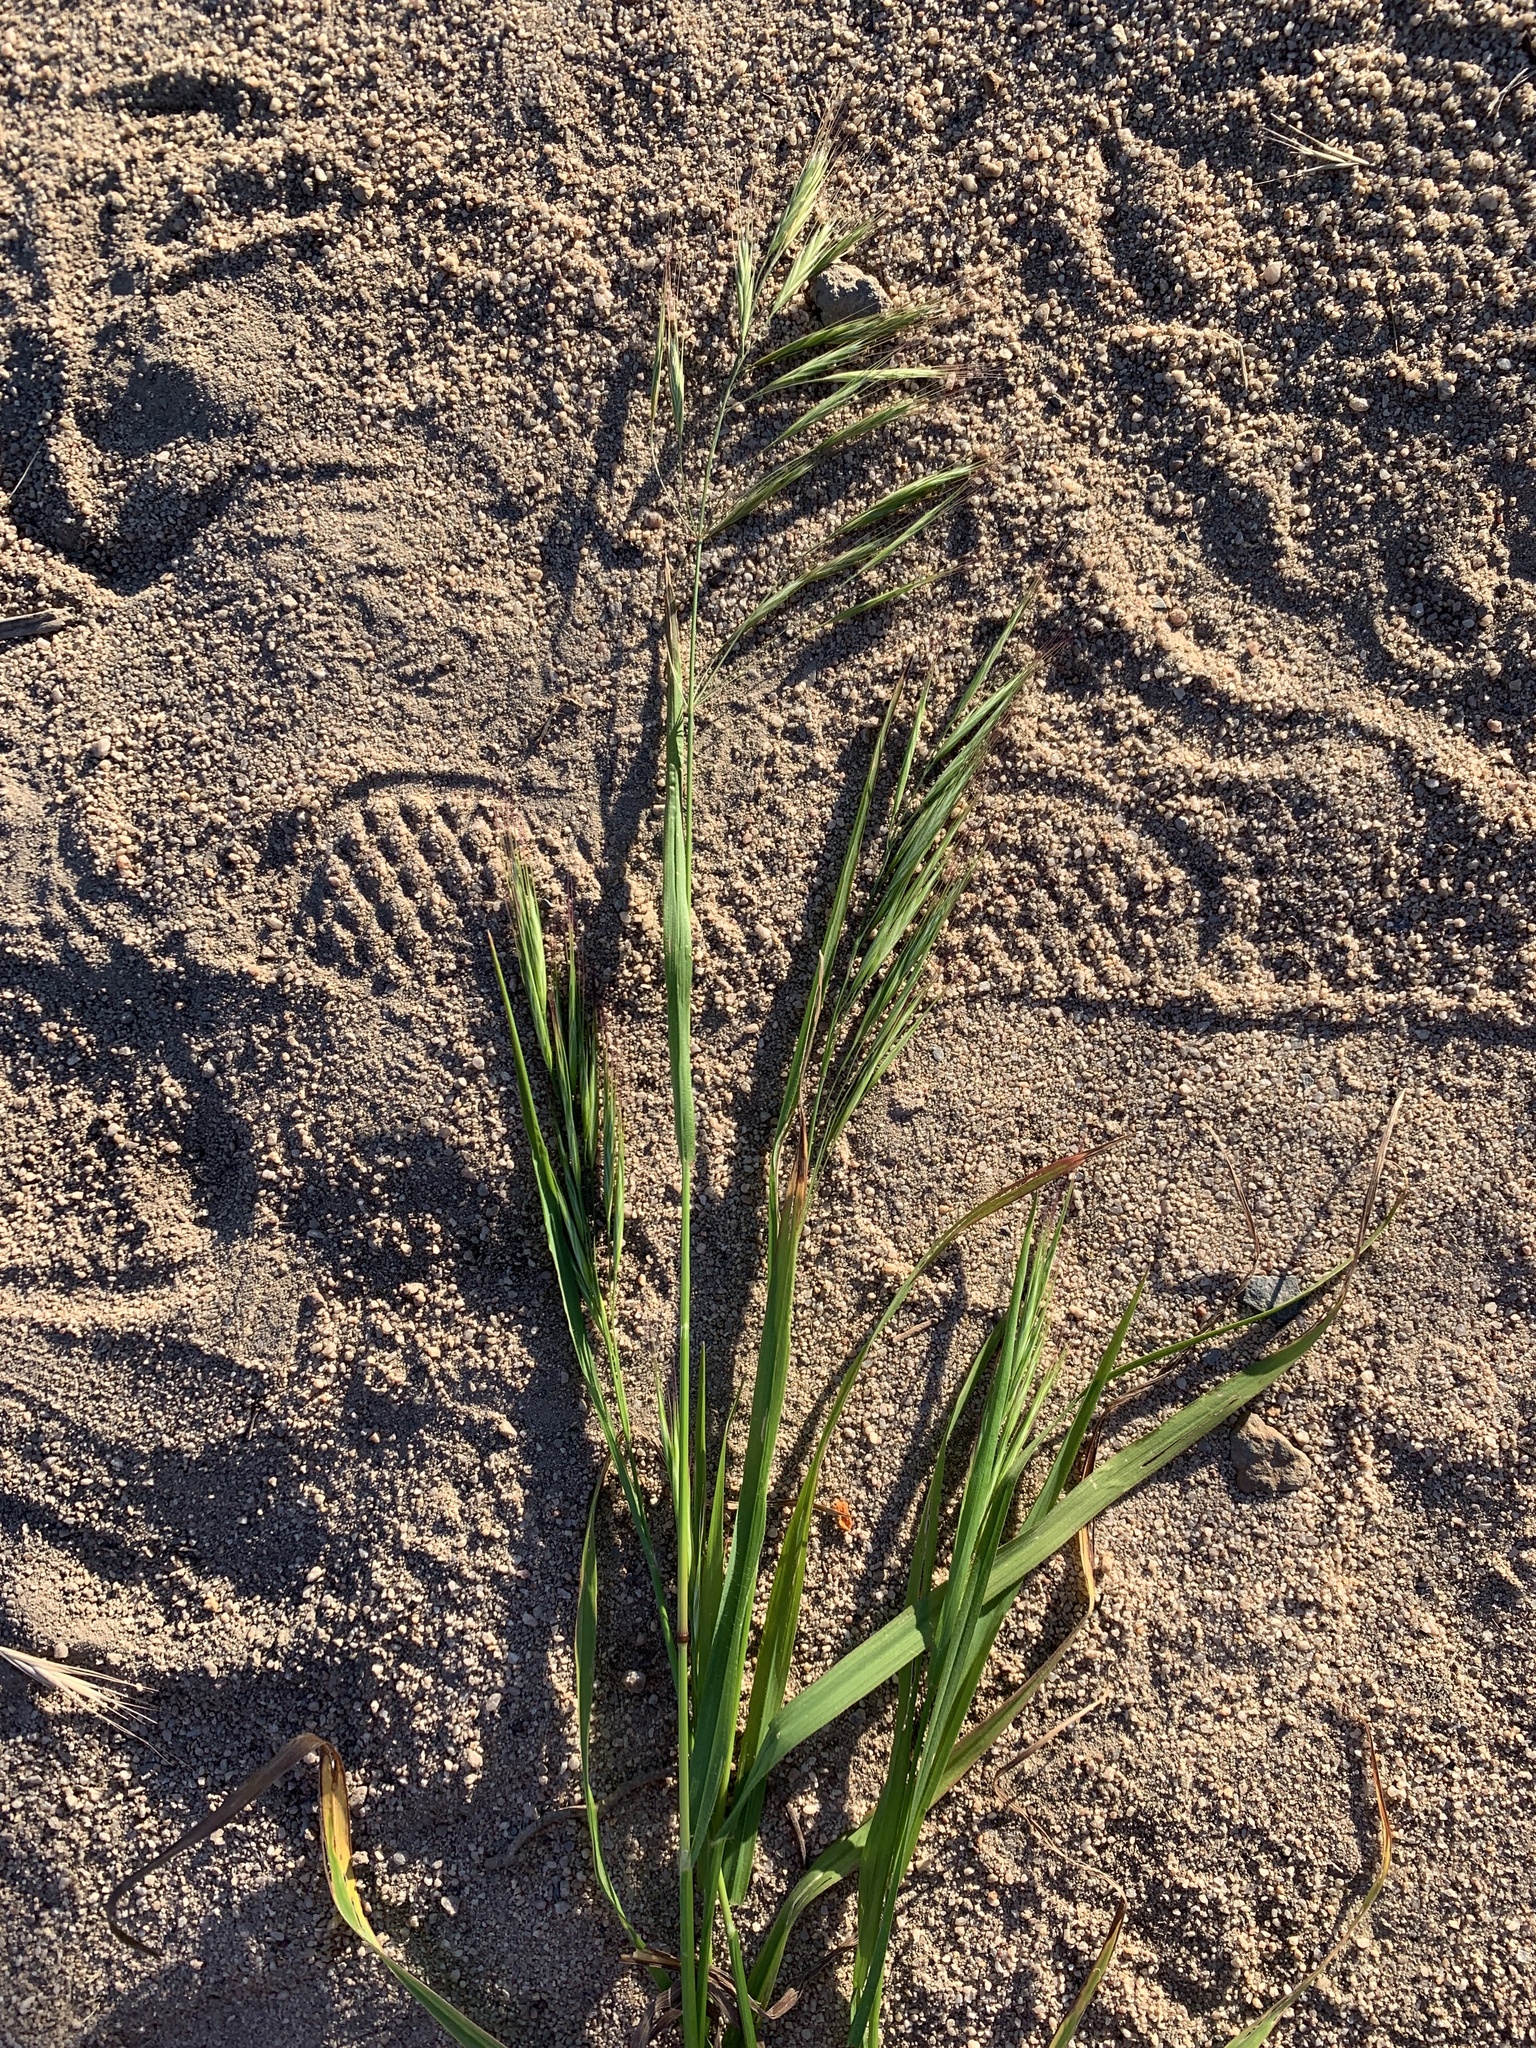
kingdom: Plantae
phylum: Tracheophyta
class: Liliopsida
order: Poales
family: Poaceae
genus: Bromus
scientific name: Bromus diandrus
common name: Ripgut brome
